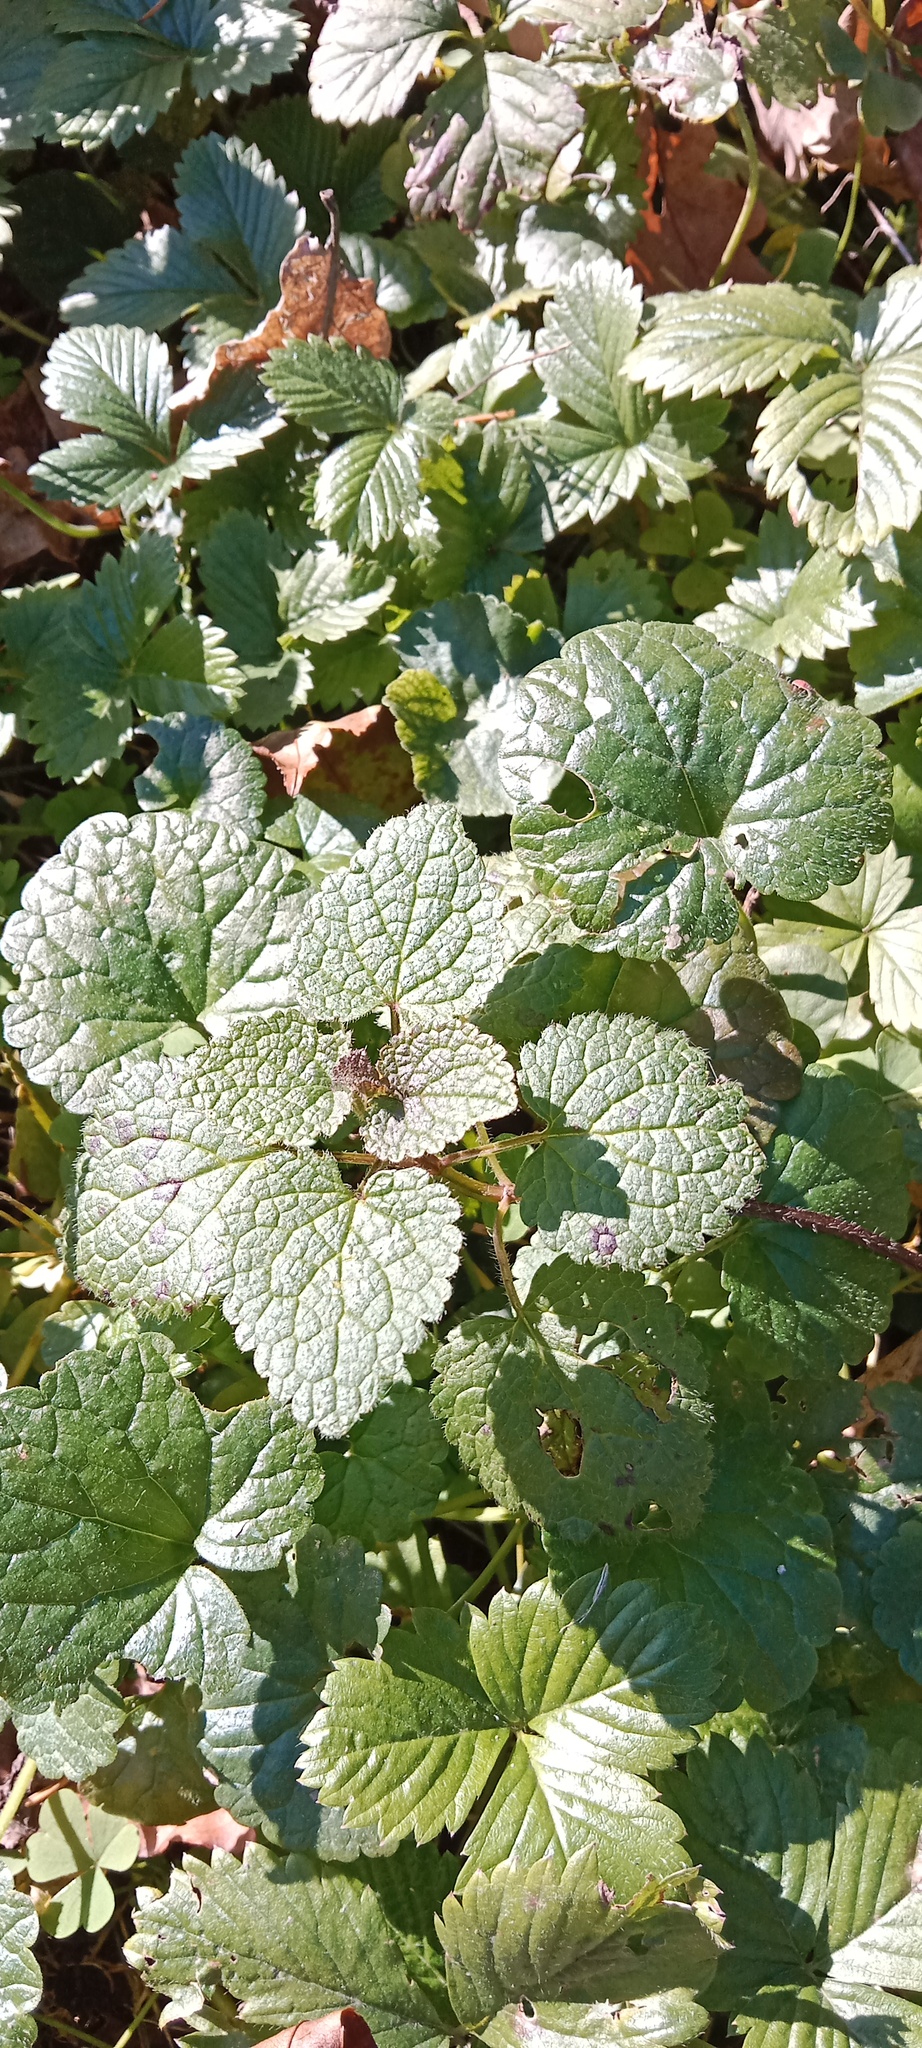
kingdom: Plantae
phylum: Tracheophyta
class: Magnoliopsida
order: Lamiales
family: Lamiaceae
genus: Glechoma
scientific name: Glechoma hederacea
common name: Ground ivy
